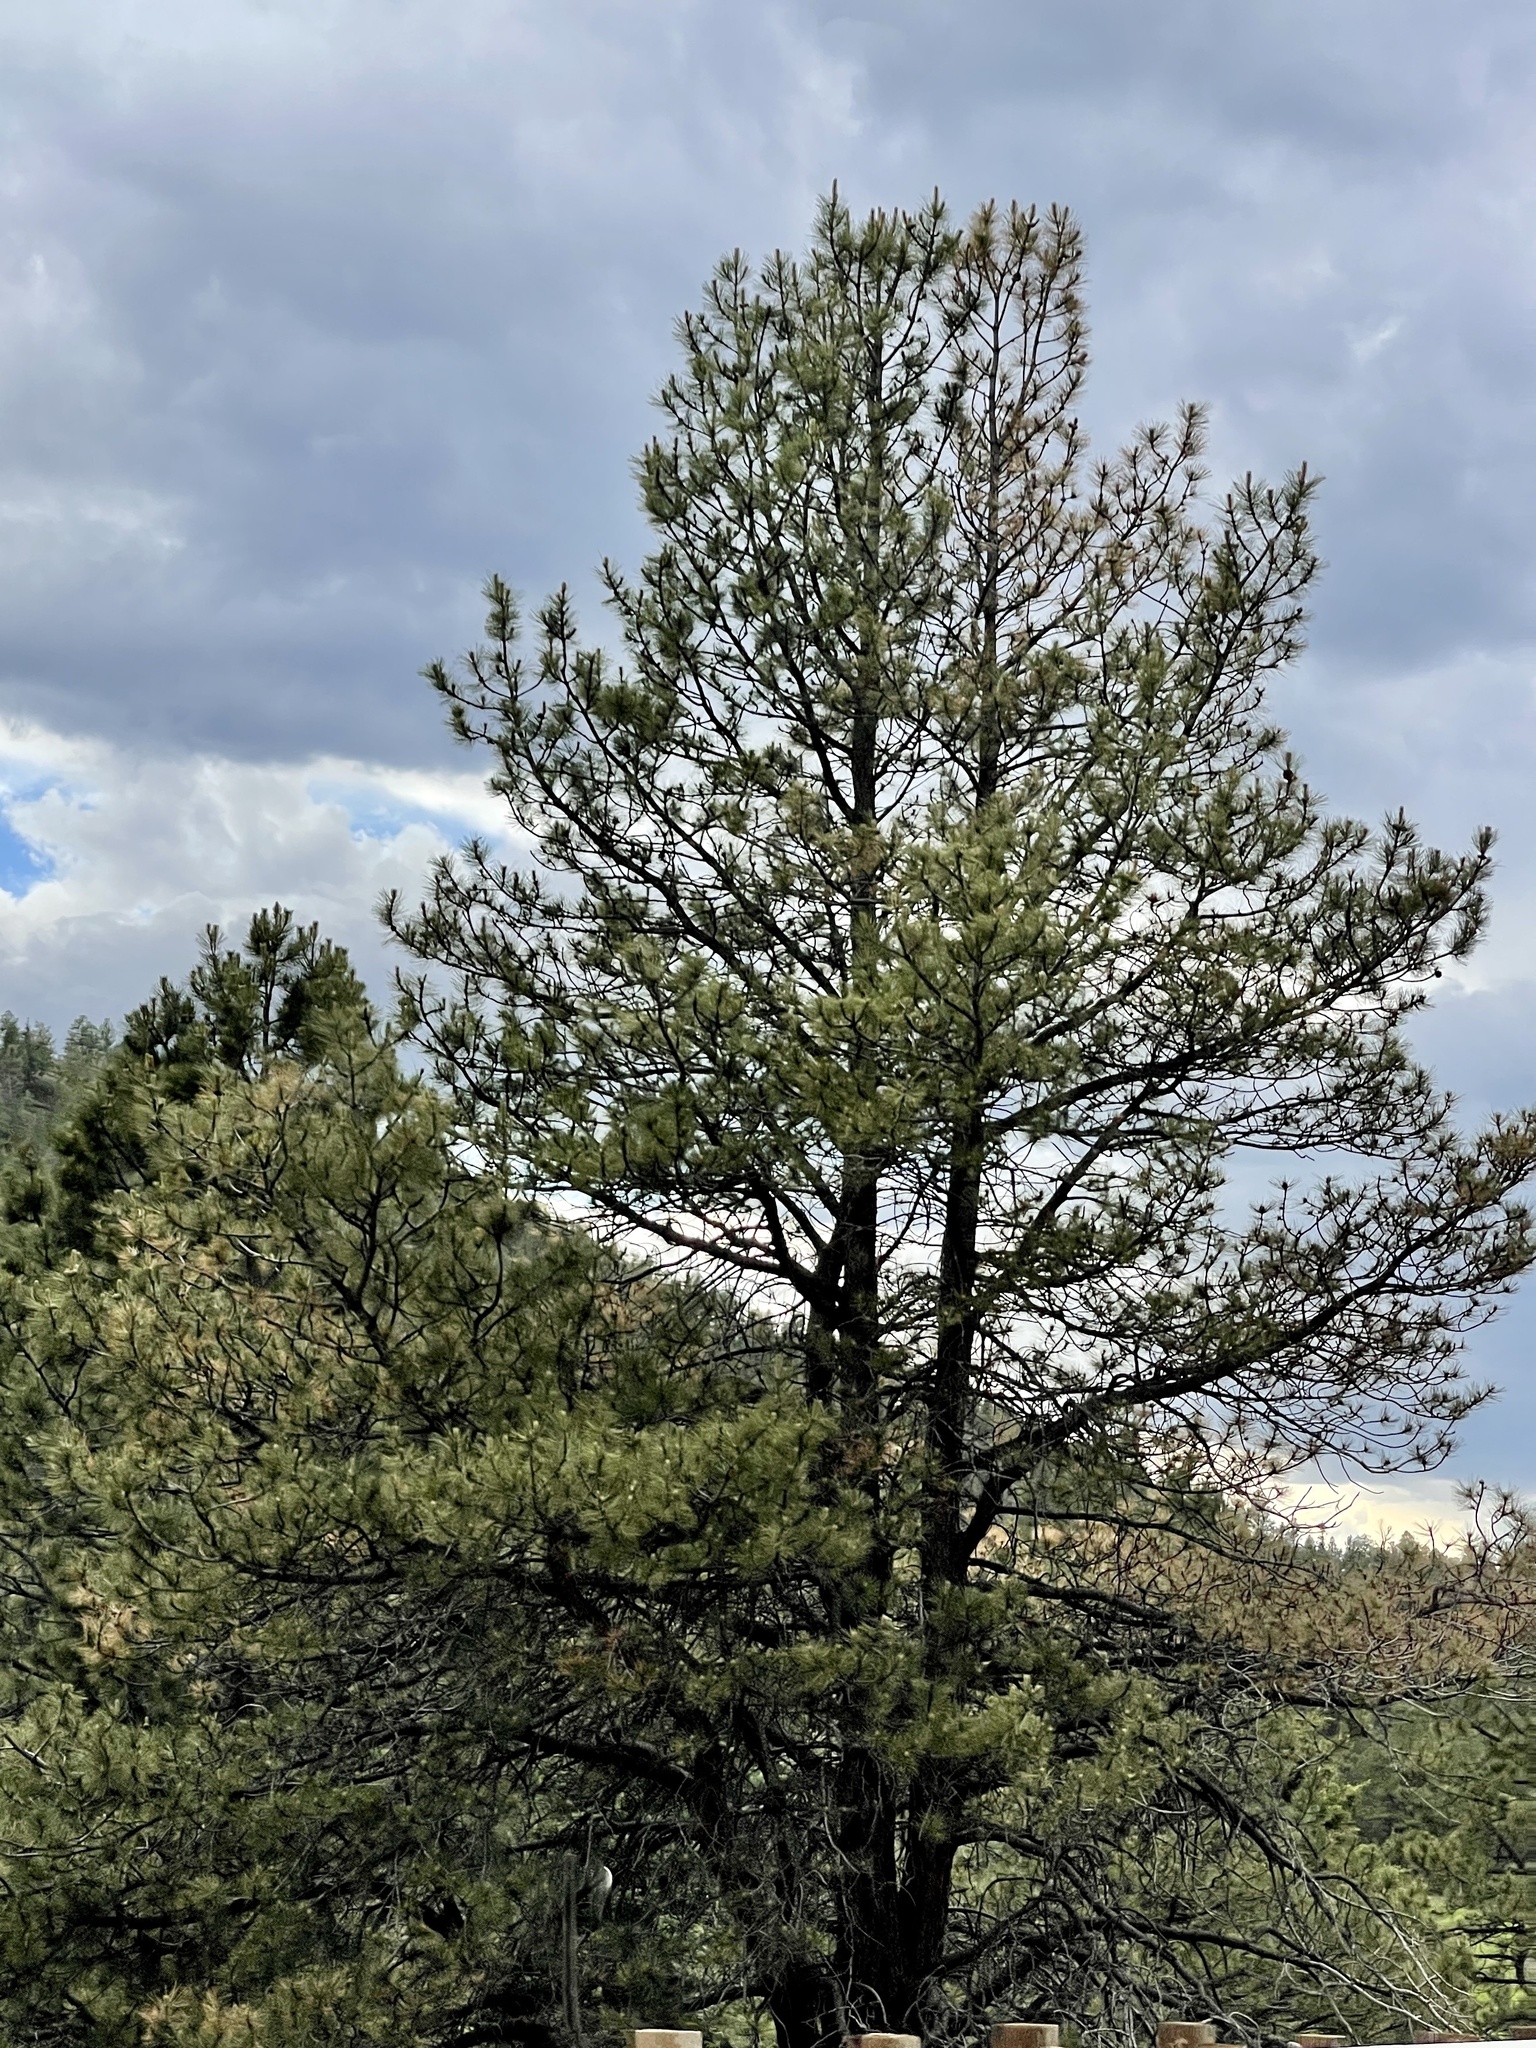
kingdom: Plantae
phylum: Tracheophyta
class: Pinopsida
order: Pinales
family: Pinaceae
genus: Pinus
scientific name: Pinus ponderosa
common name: Western yellow-pine
